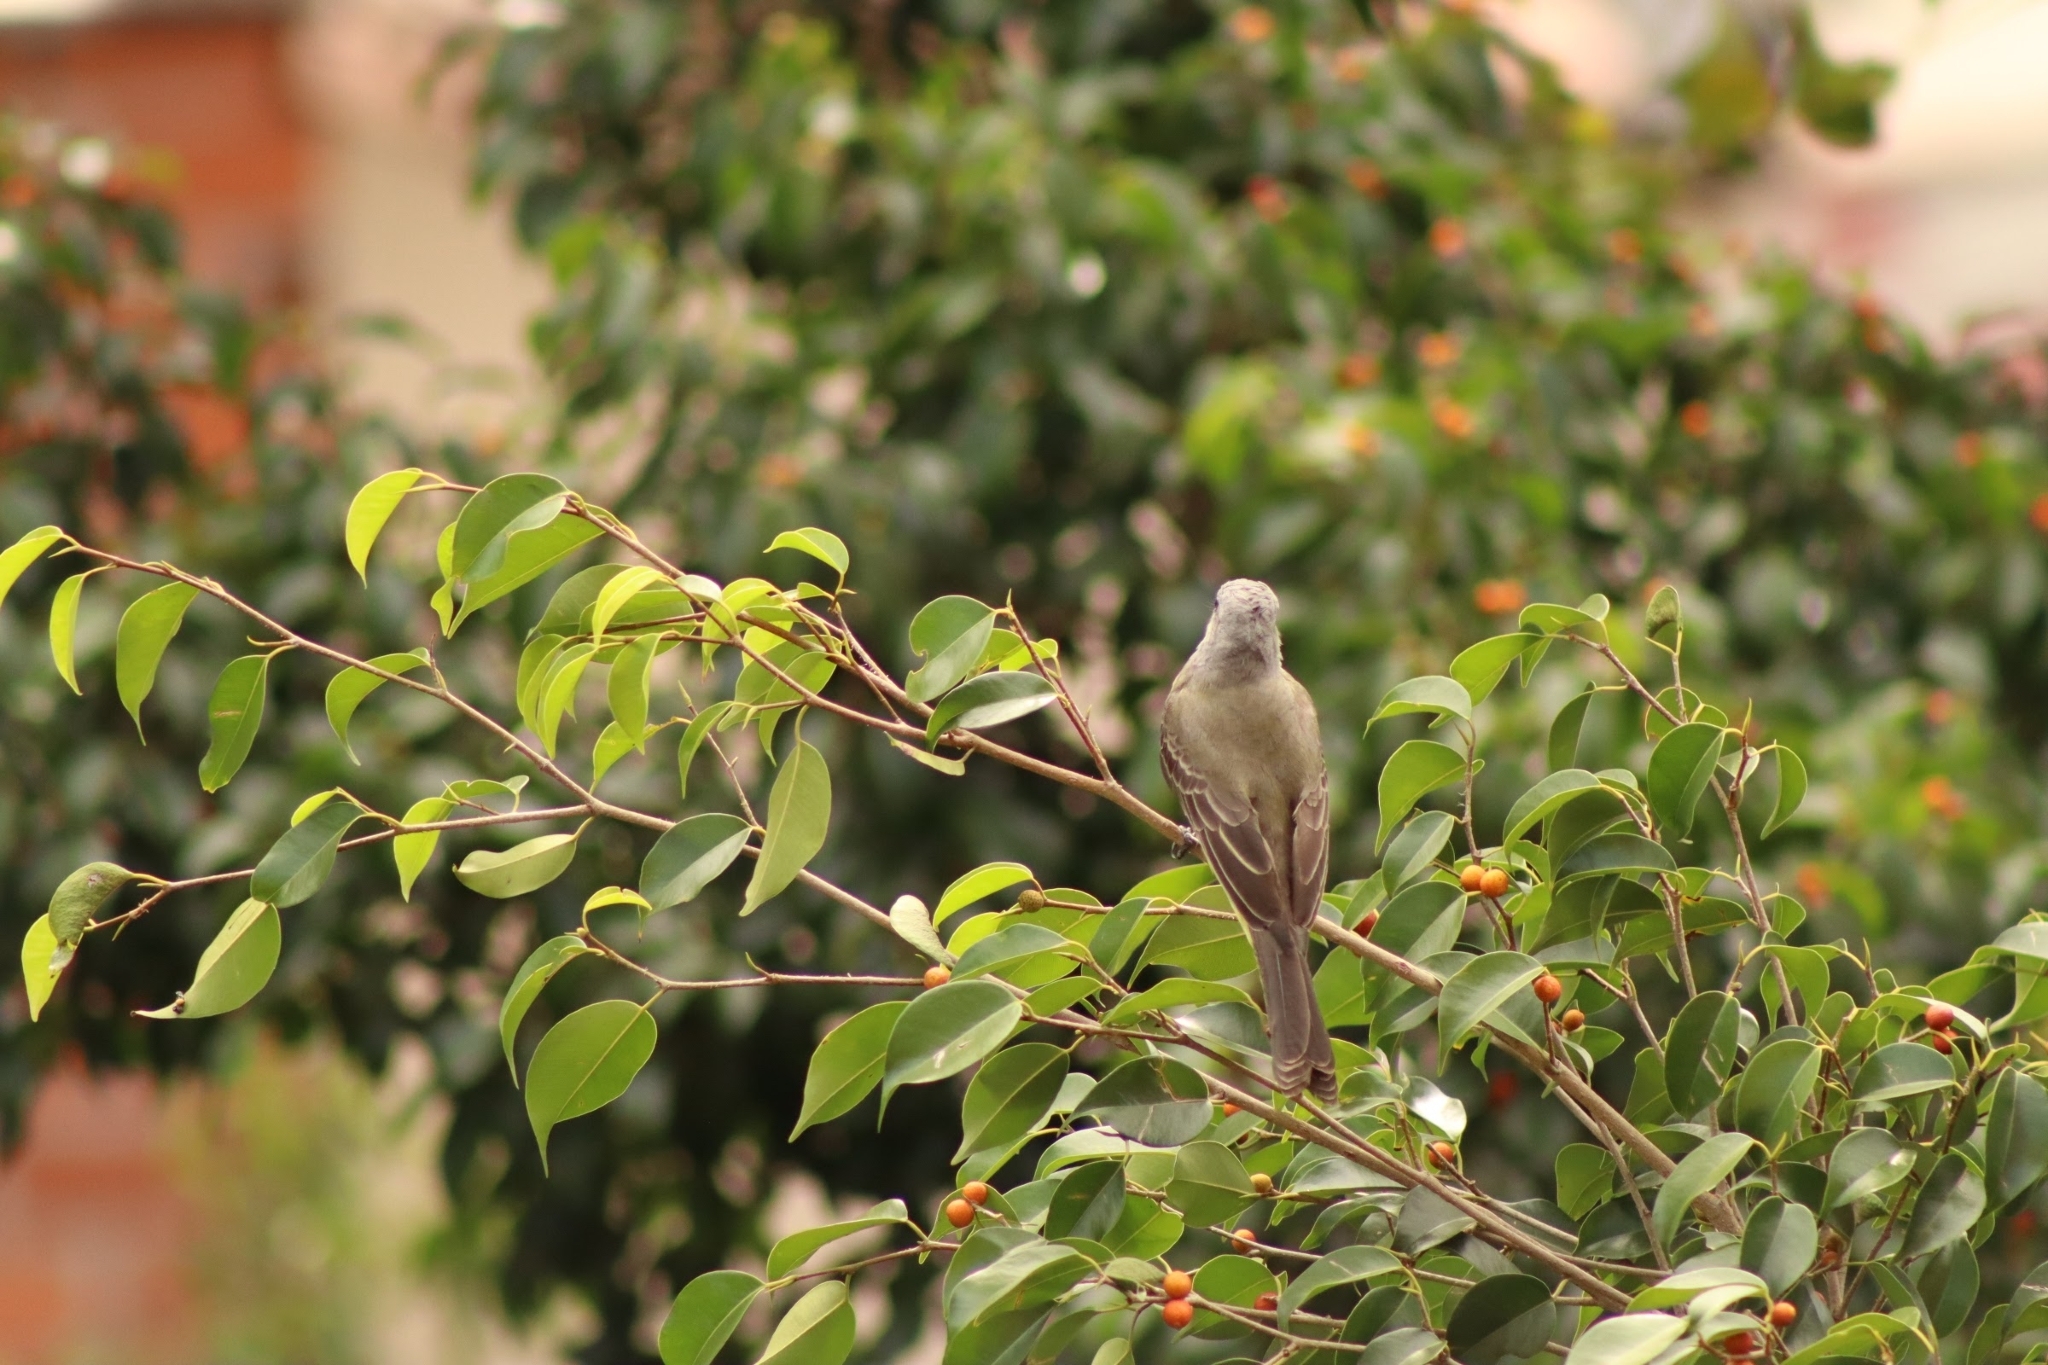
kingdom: Animalia
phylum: Chordata
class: Aves
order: Passeriformes
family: Tyrannidae
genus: Tyrannus
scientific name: Tyrannus melancholicus
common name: Tropical kingbird
